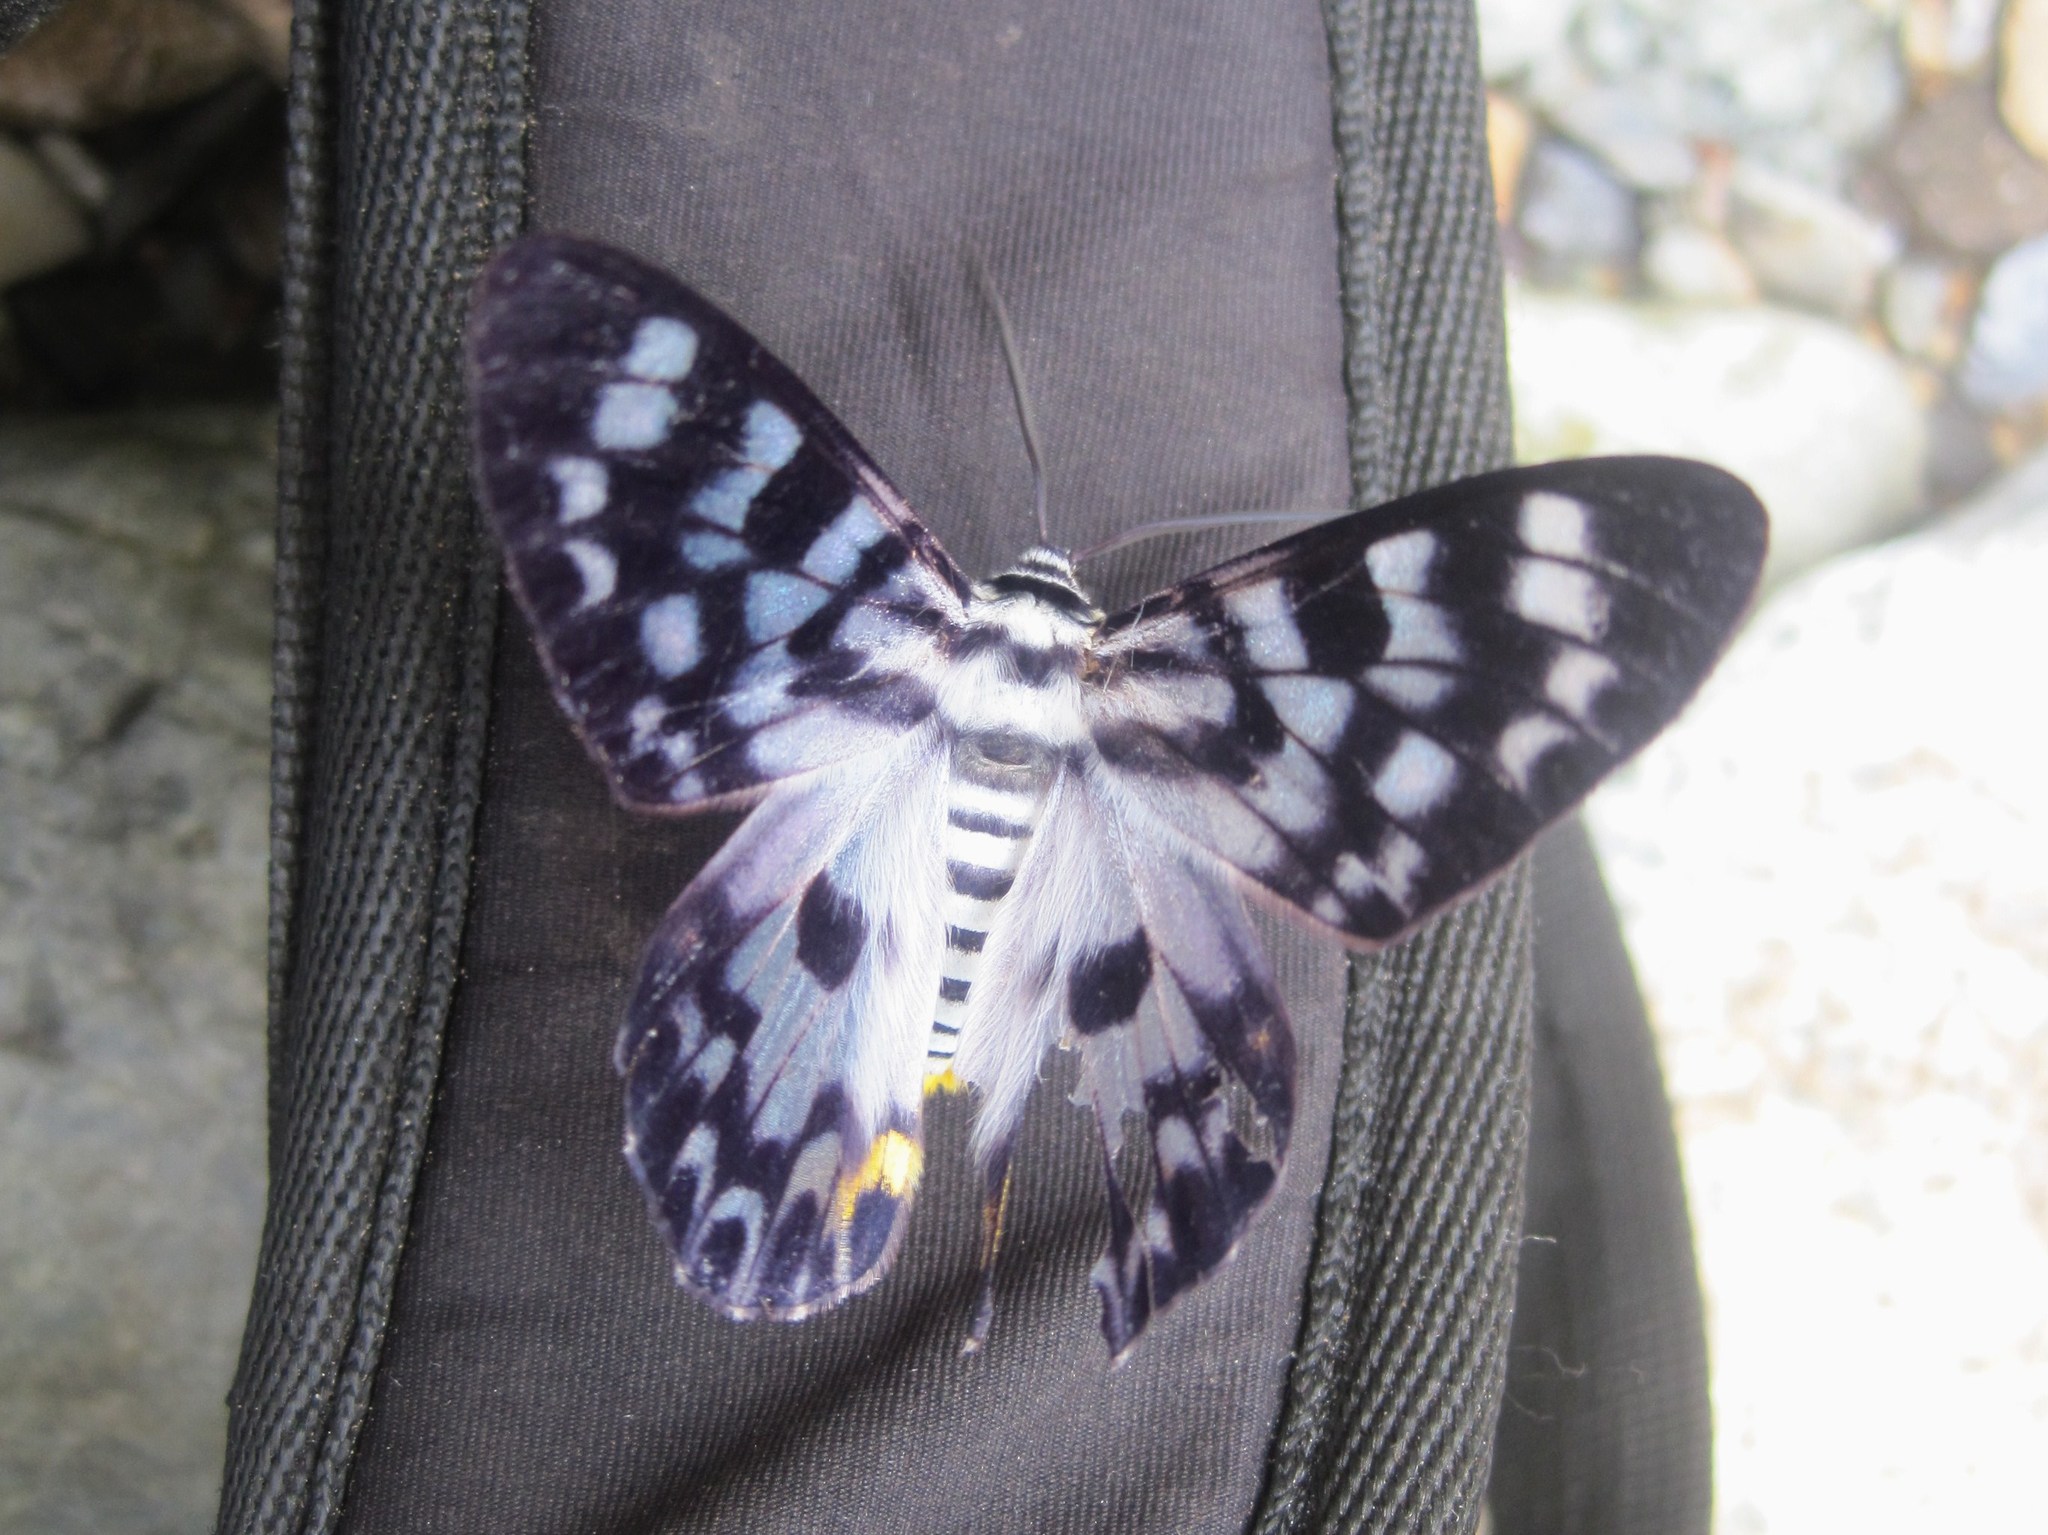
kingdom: Animalia
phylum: Arthropoda
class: Insecta
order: Lepidoptera
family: Geometridae
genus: Dysphania
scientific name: Dysphania transducta
